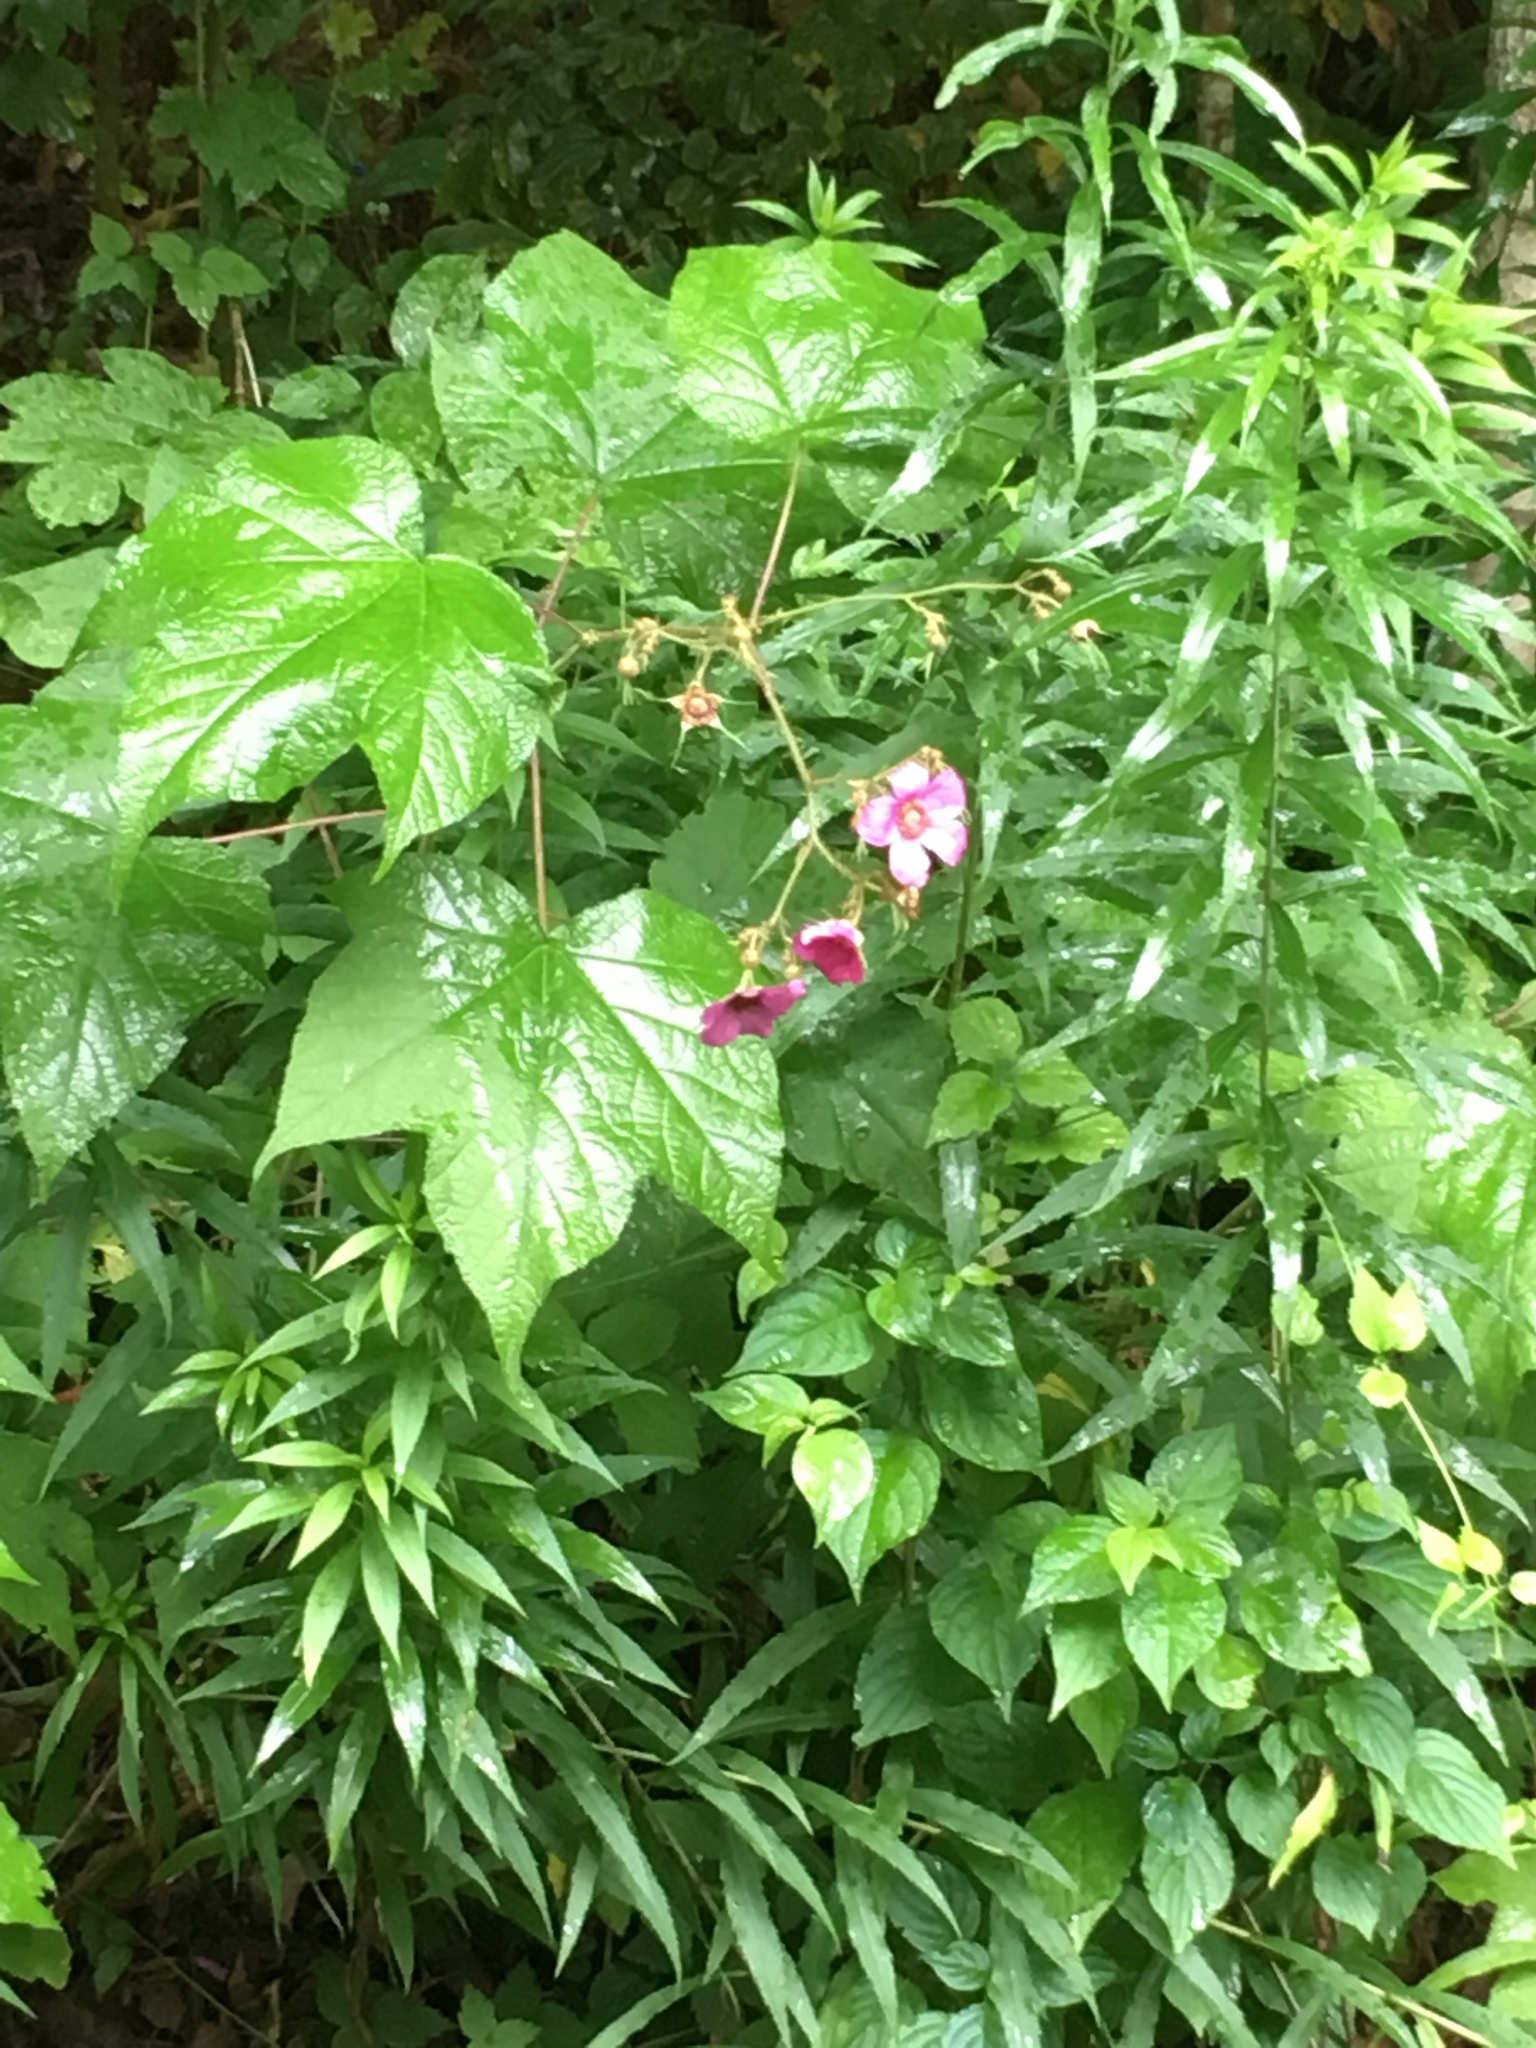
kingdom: Plantae
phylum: Tracheophyta
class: Magnoliopsida
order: Rosales
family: Rosaceae
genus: Rubus
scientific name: Rubus odoratus
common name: Purple-flowered raspberry
